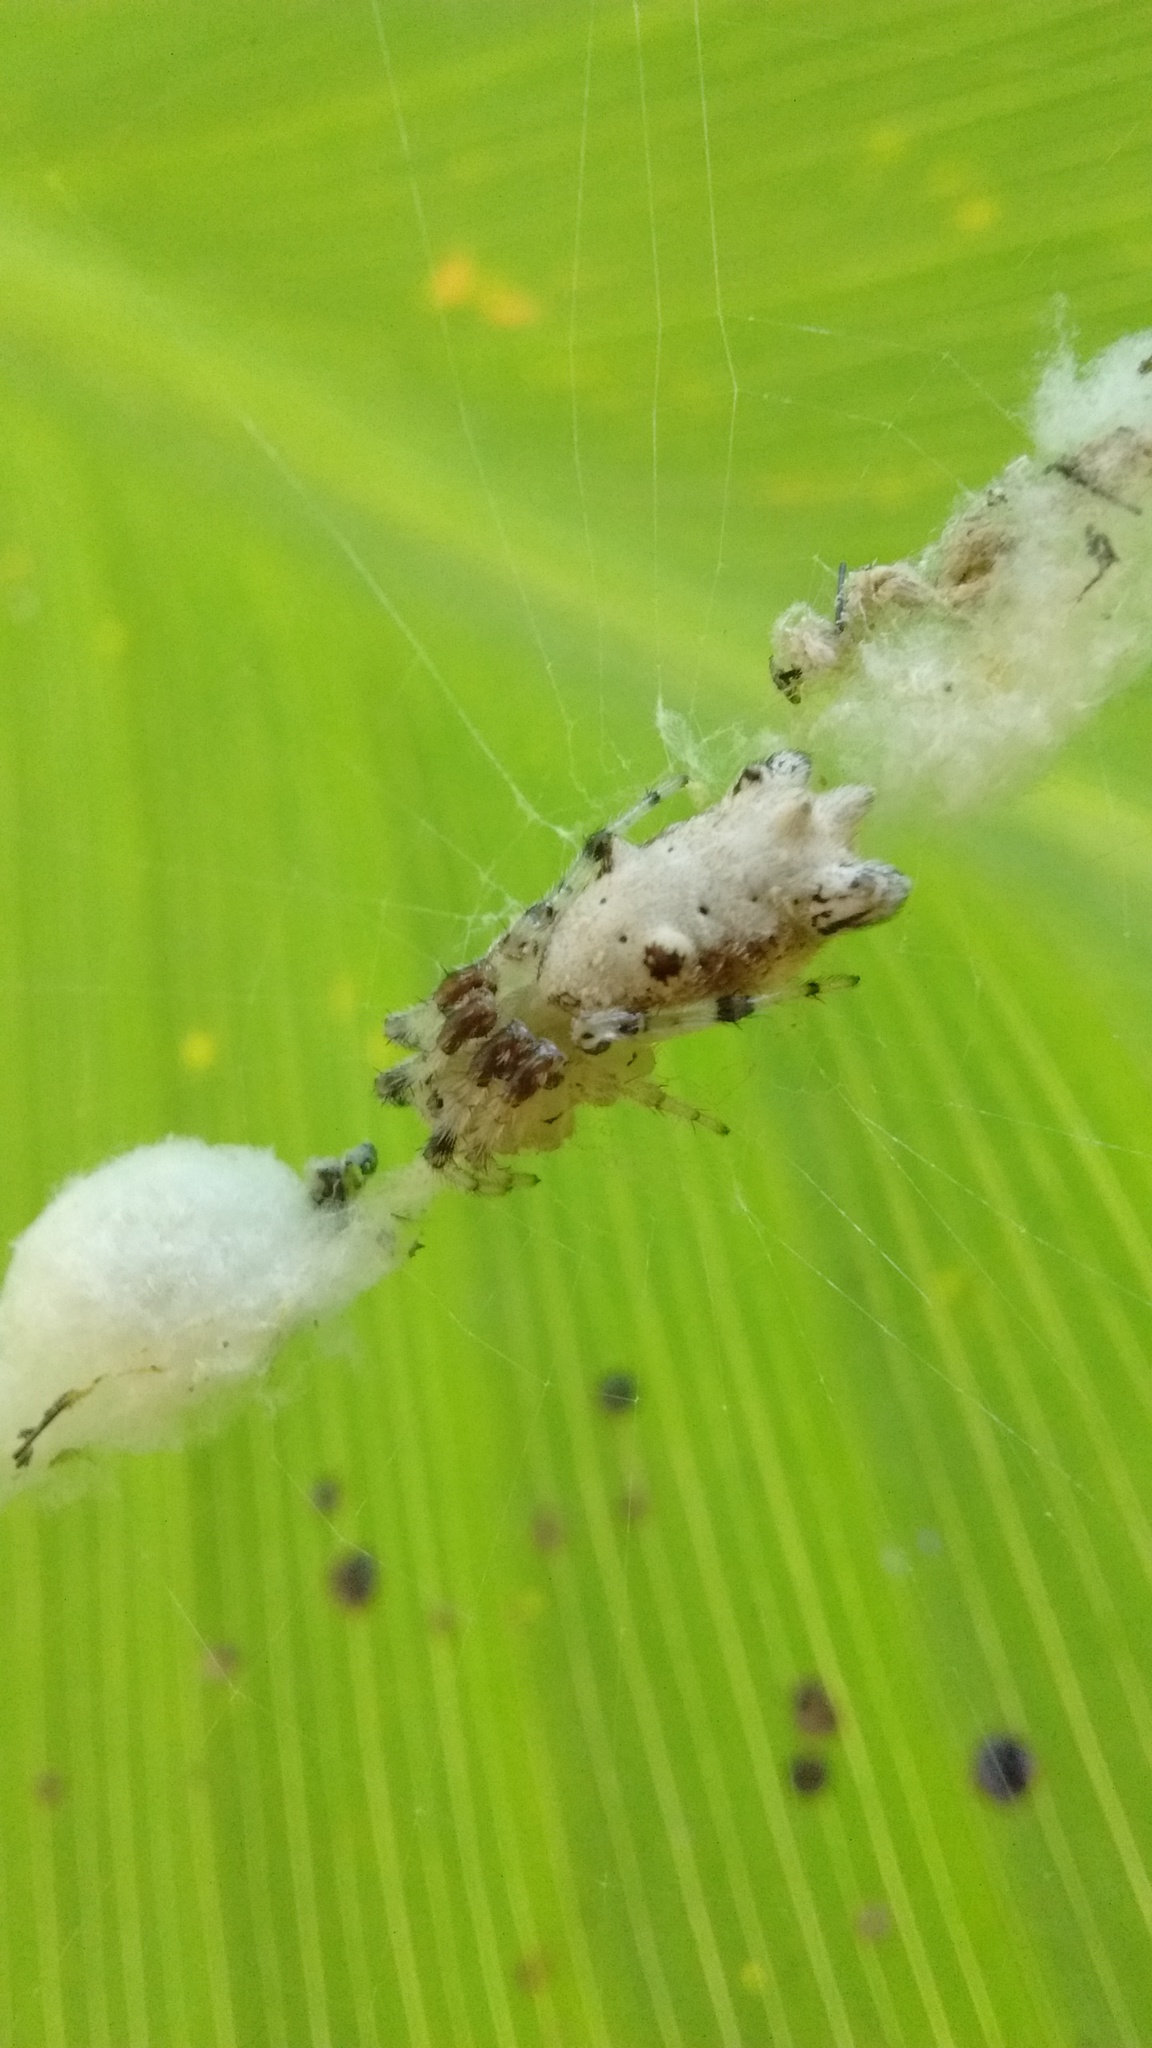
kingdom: Animalia
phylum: Arthropoda
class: Arachnida
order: Araneae
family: Araneidae
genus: Cyclosa
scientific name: Cyclosa diversa
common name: Orb weavers
